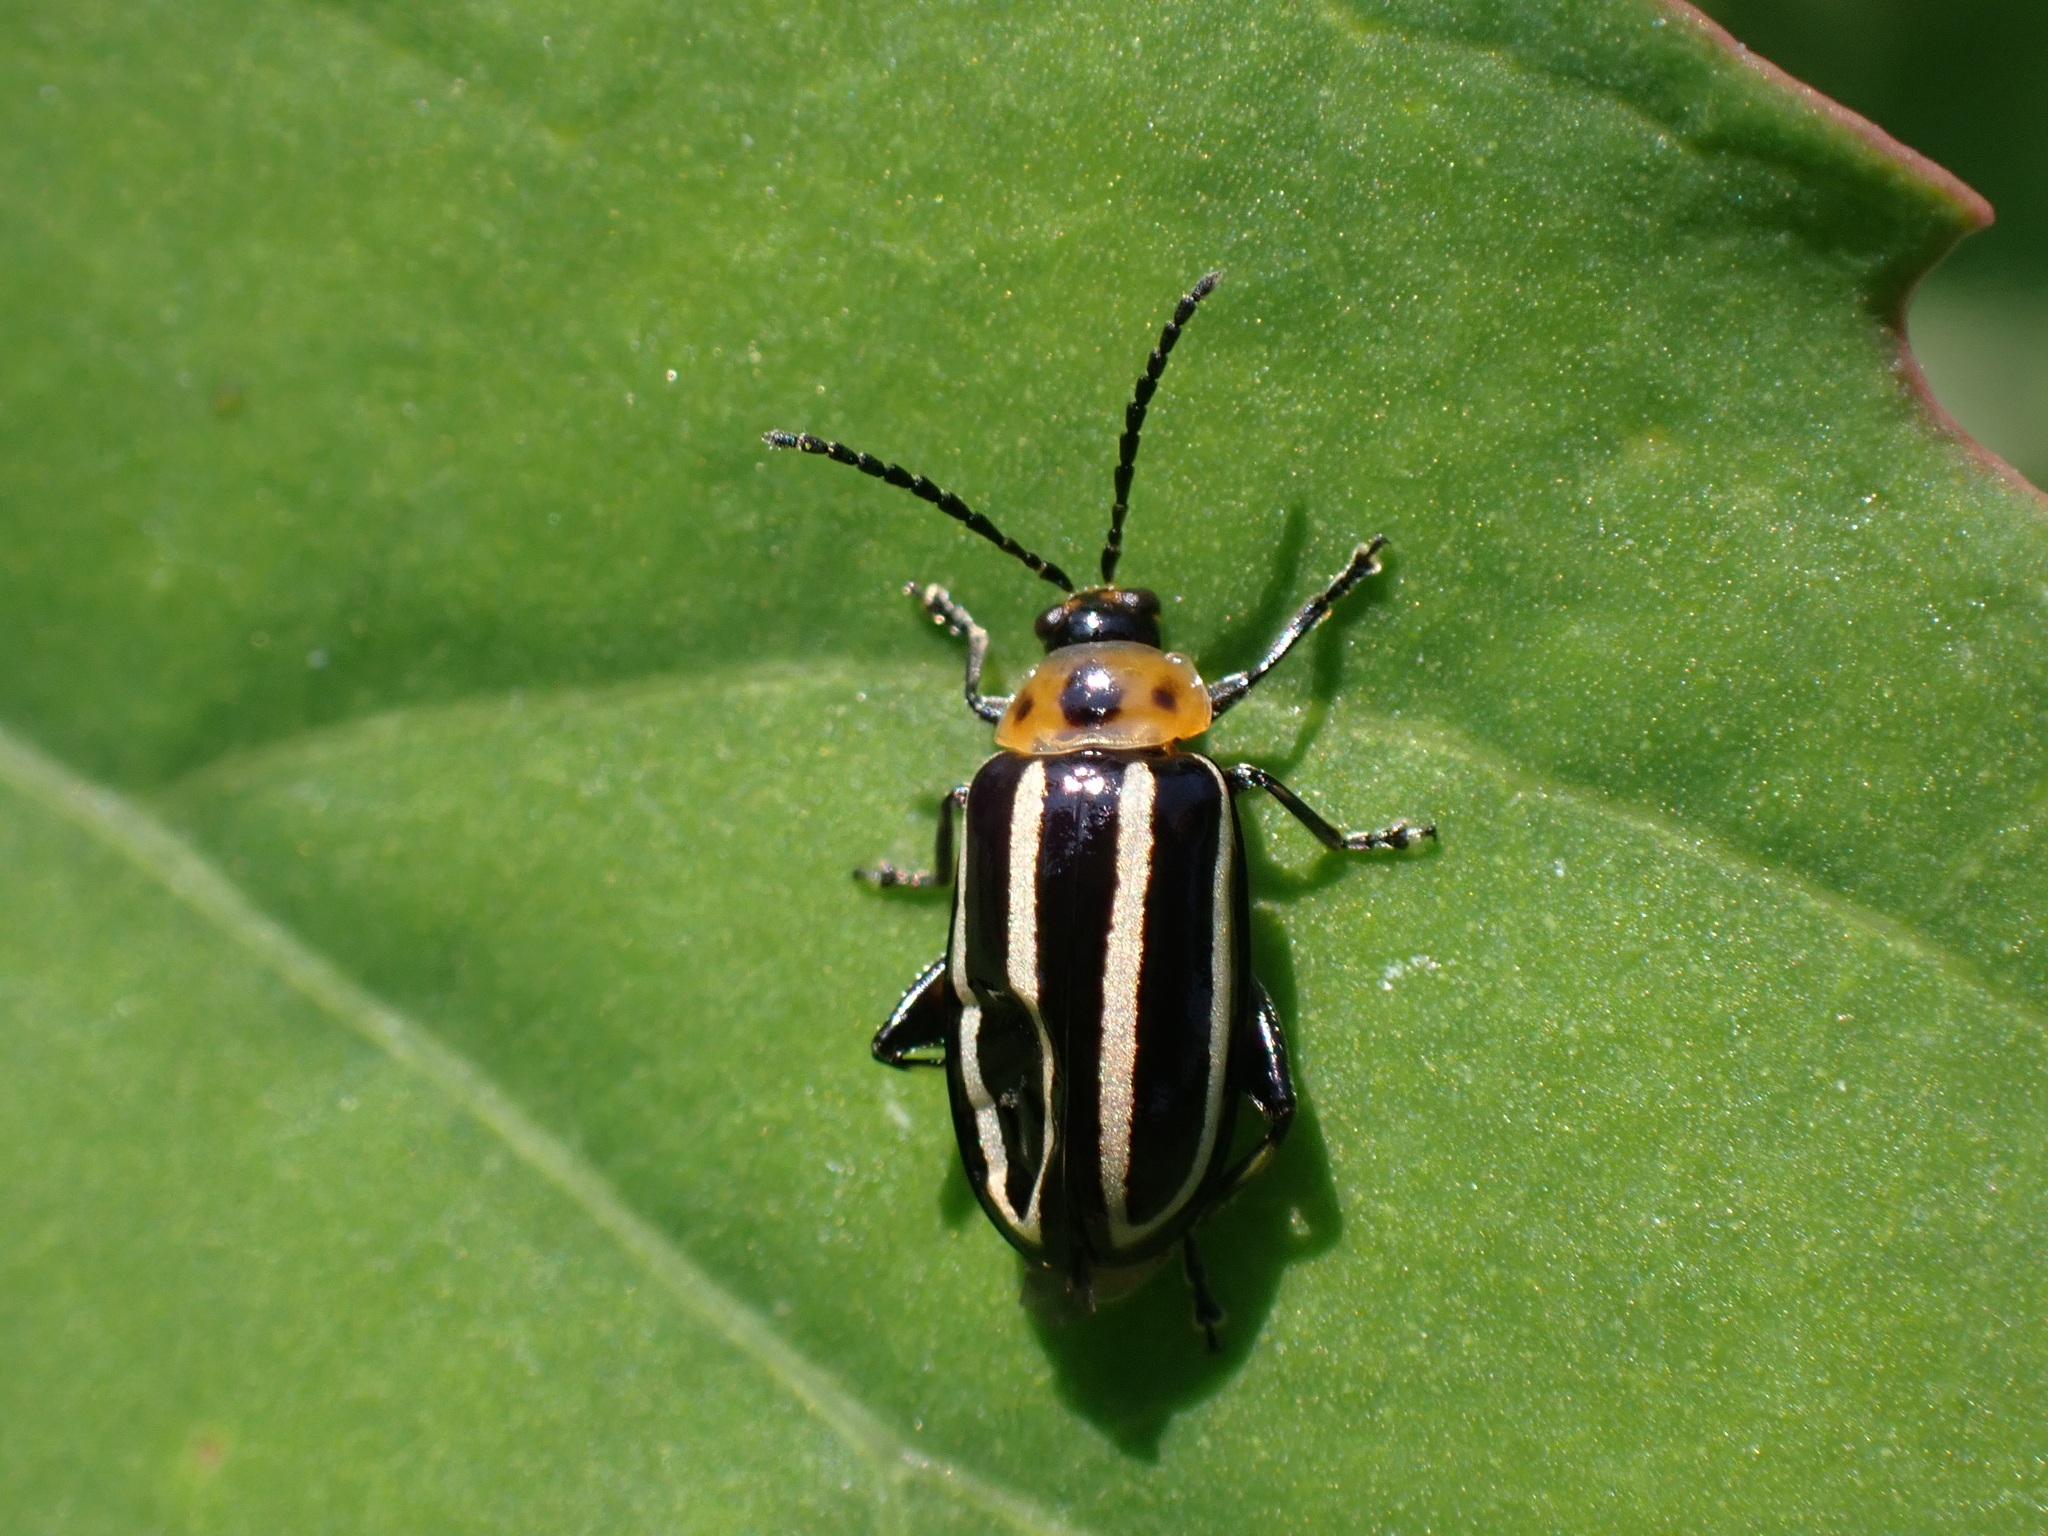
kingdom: Animalia
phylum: Arthropoda
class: Insecta
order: Coleoptera
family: Chrysomelidae
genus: Disonycha
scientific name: Disonycha glabrata
